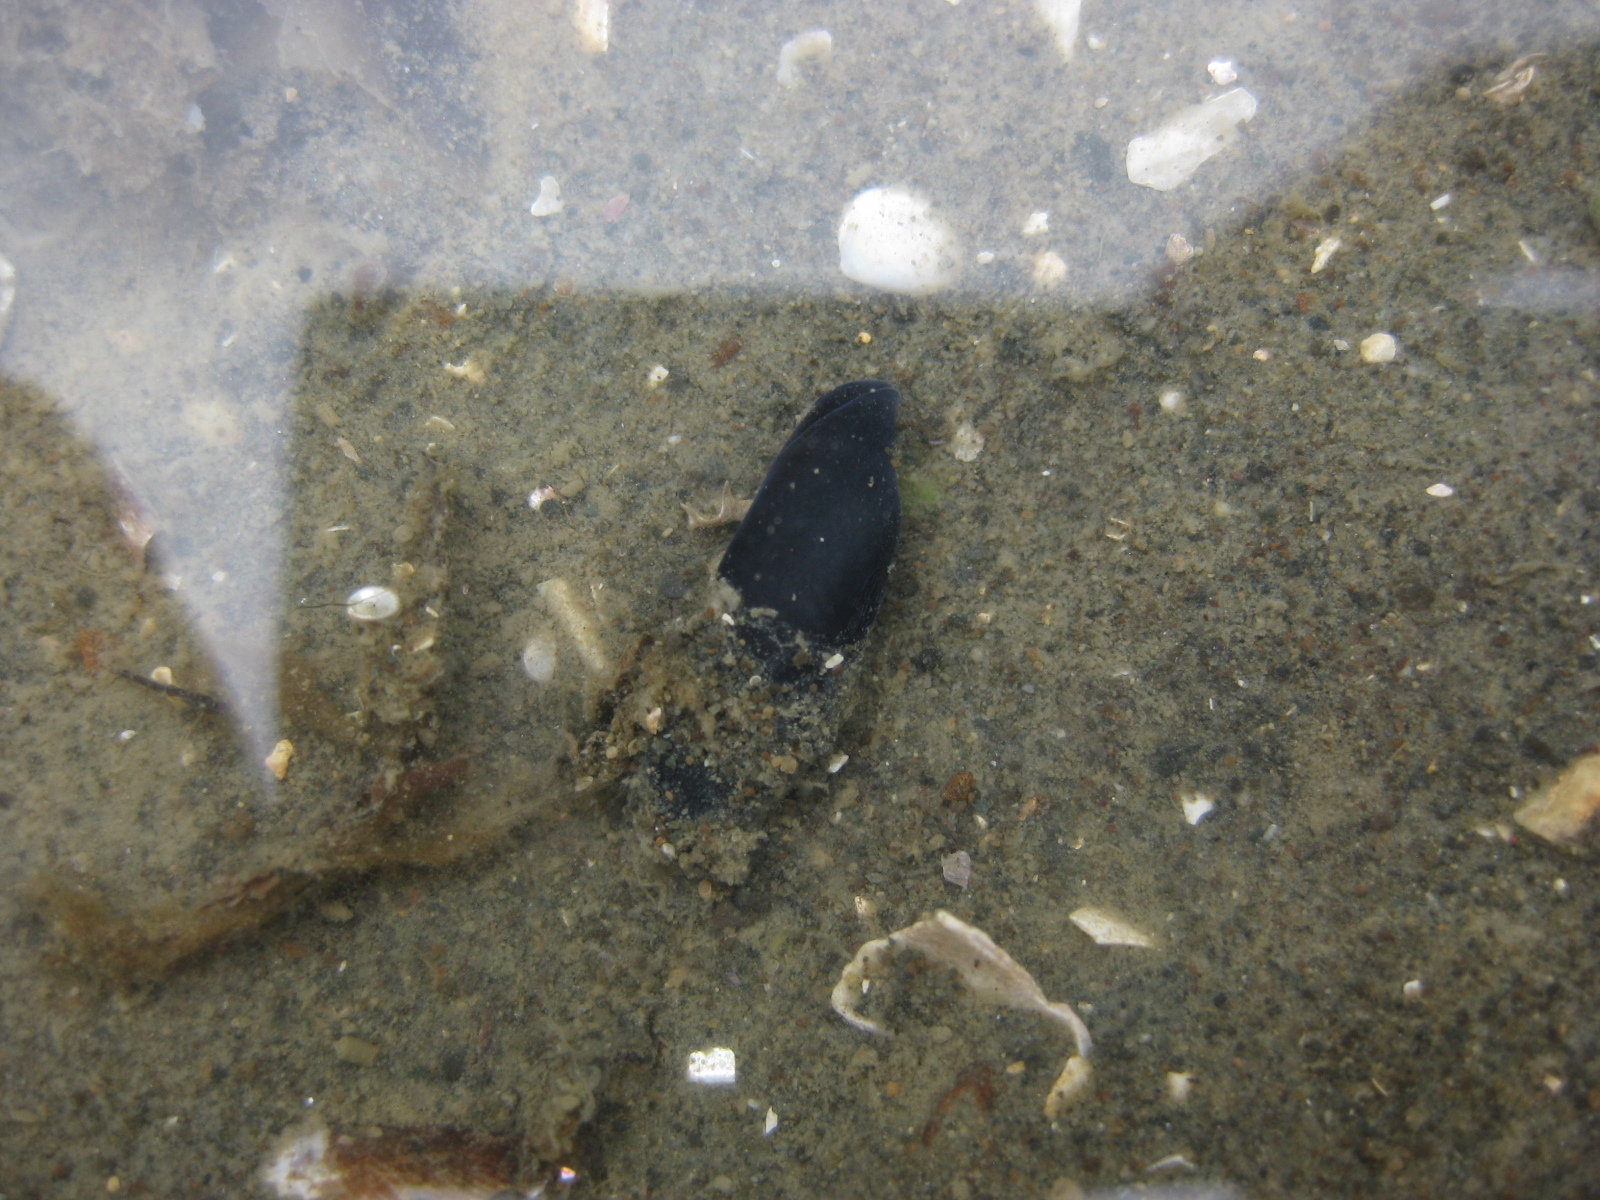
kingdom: Animalia
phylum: Mollusca
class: Gastropoda
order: Cephalaspidea
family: Aglajidae
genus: Melanochlamys
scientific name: Melanochlamys cylindrica
